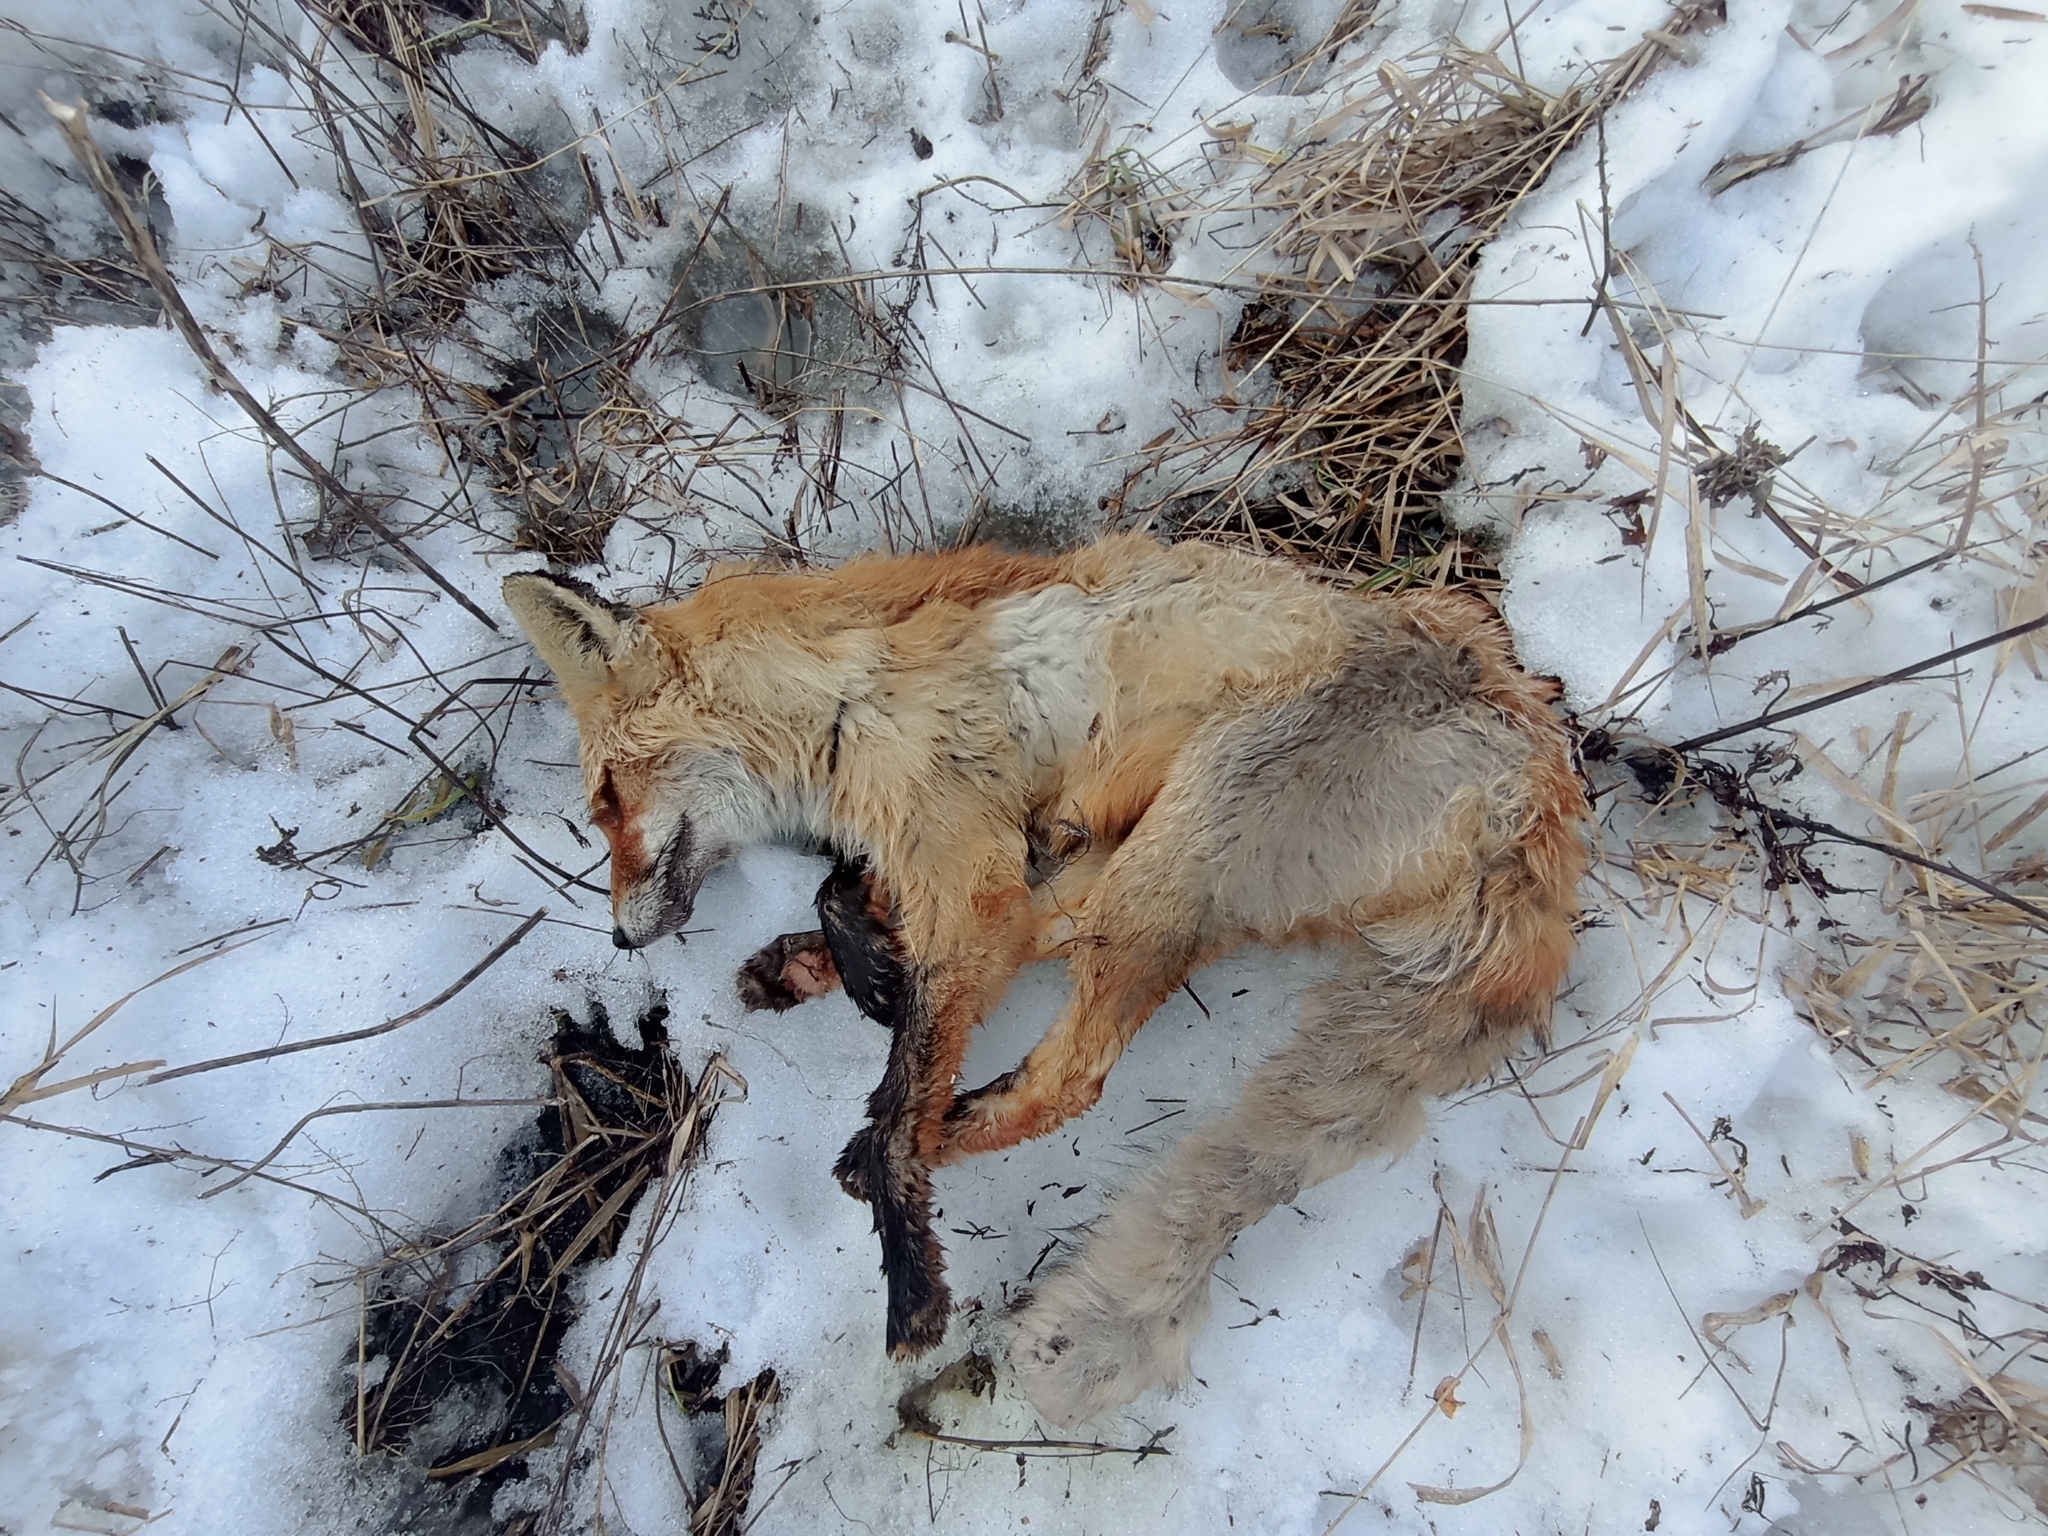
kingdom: Animalia
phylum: Chordata
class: Mammalia
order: Carnivora
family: Canidae
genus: Vulpes
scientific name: Vulpes vulpes
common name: Red fox
